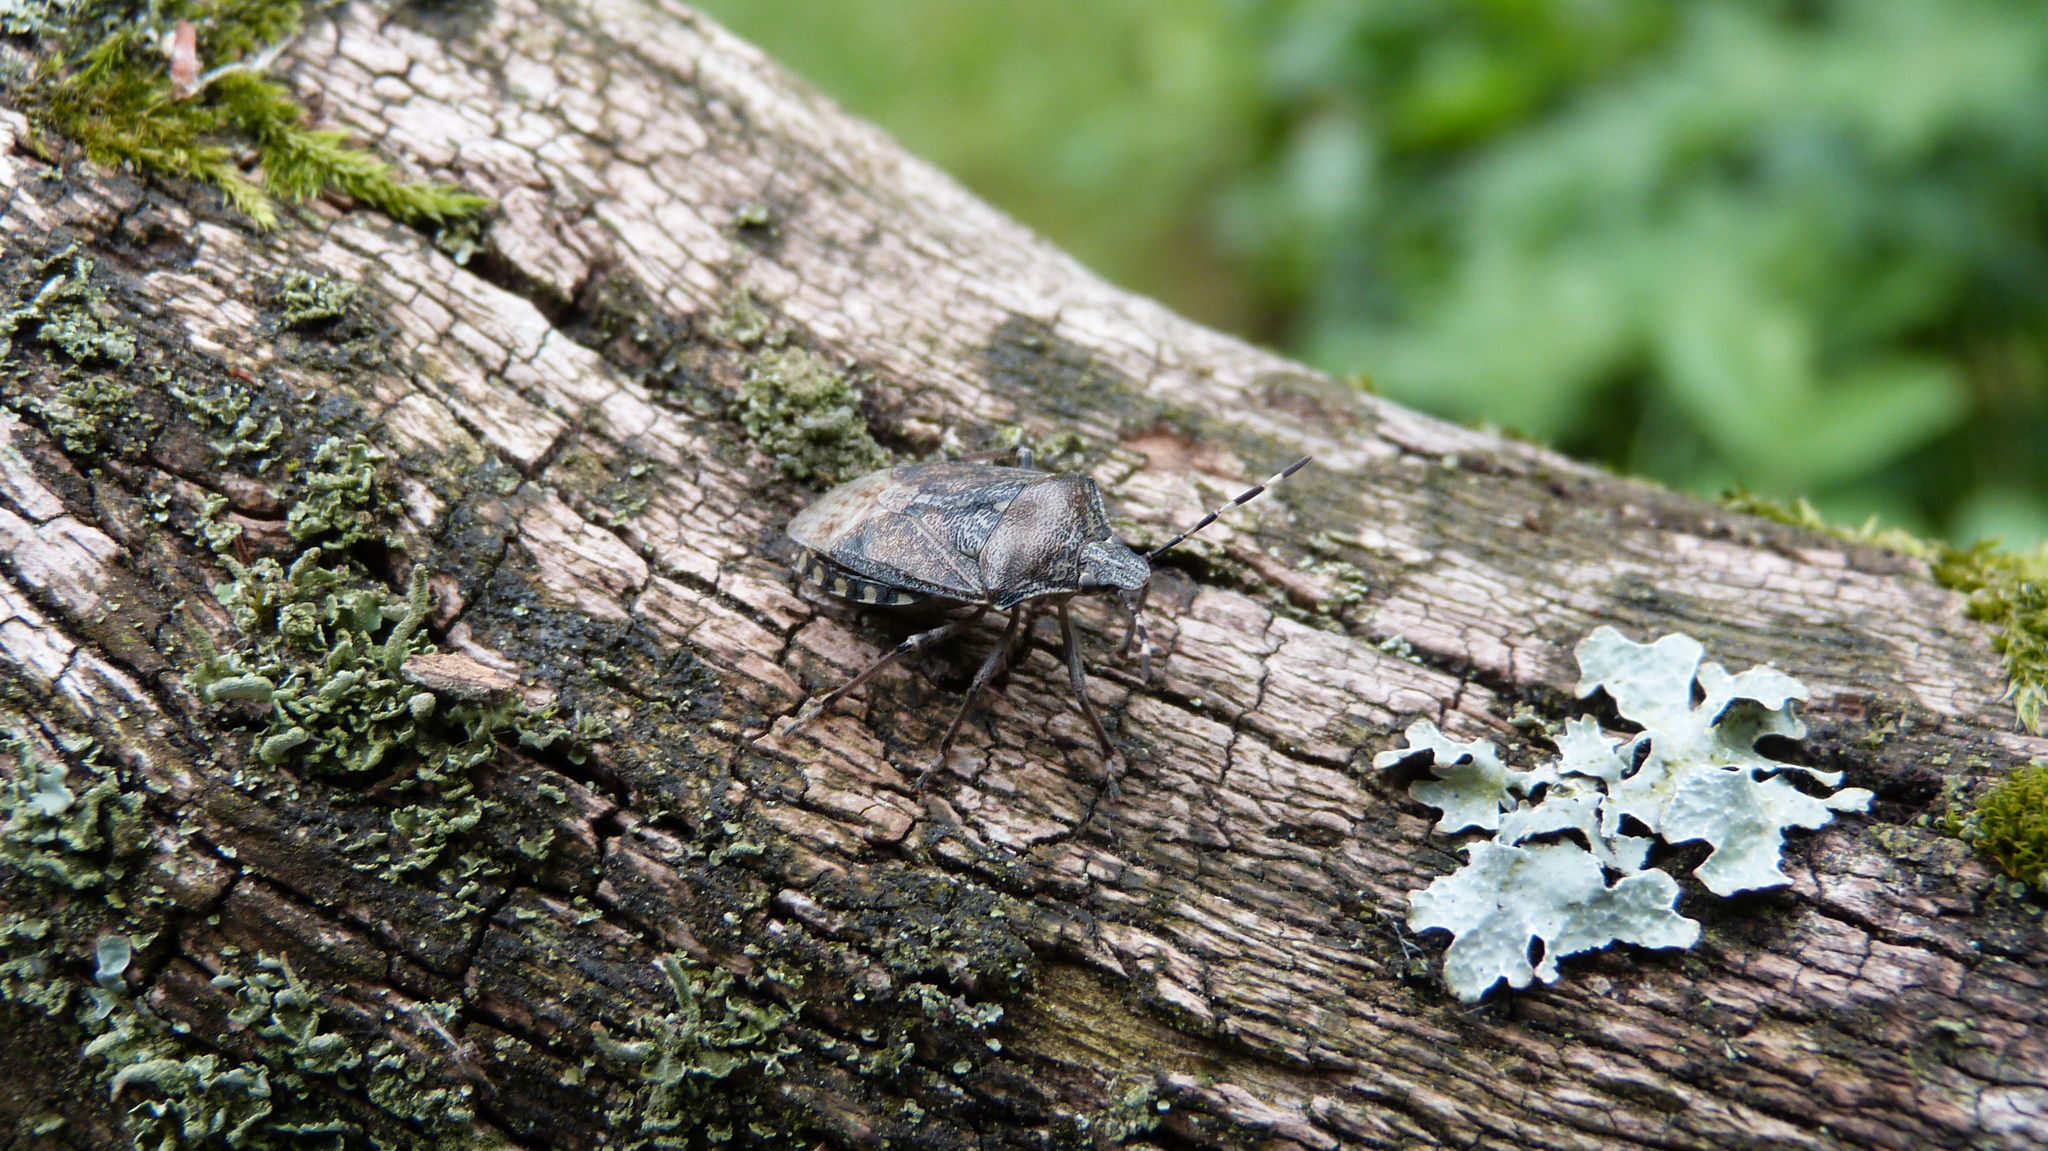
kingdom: Animalia
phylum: Arthropoda
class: Insecta
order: Hemiptera
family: Pentatomidae
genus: Rhaphigaster
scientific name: Rhaphigaster nebulosa
